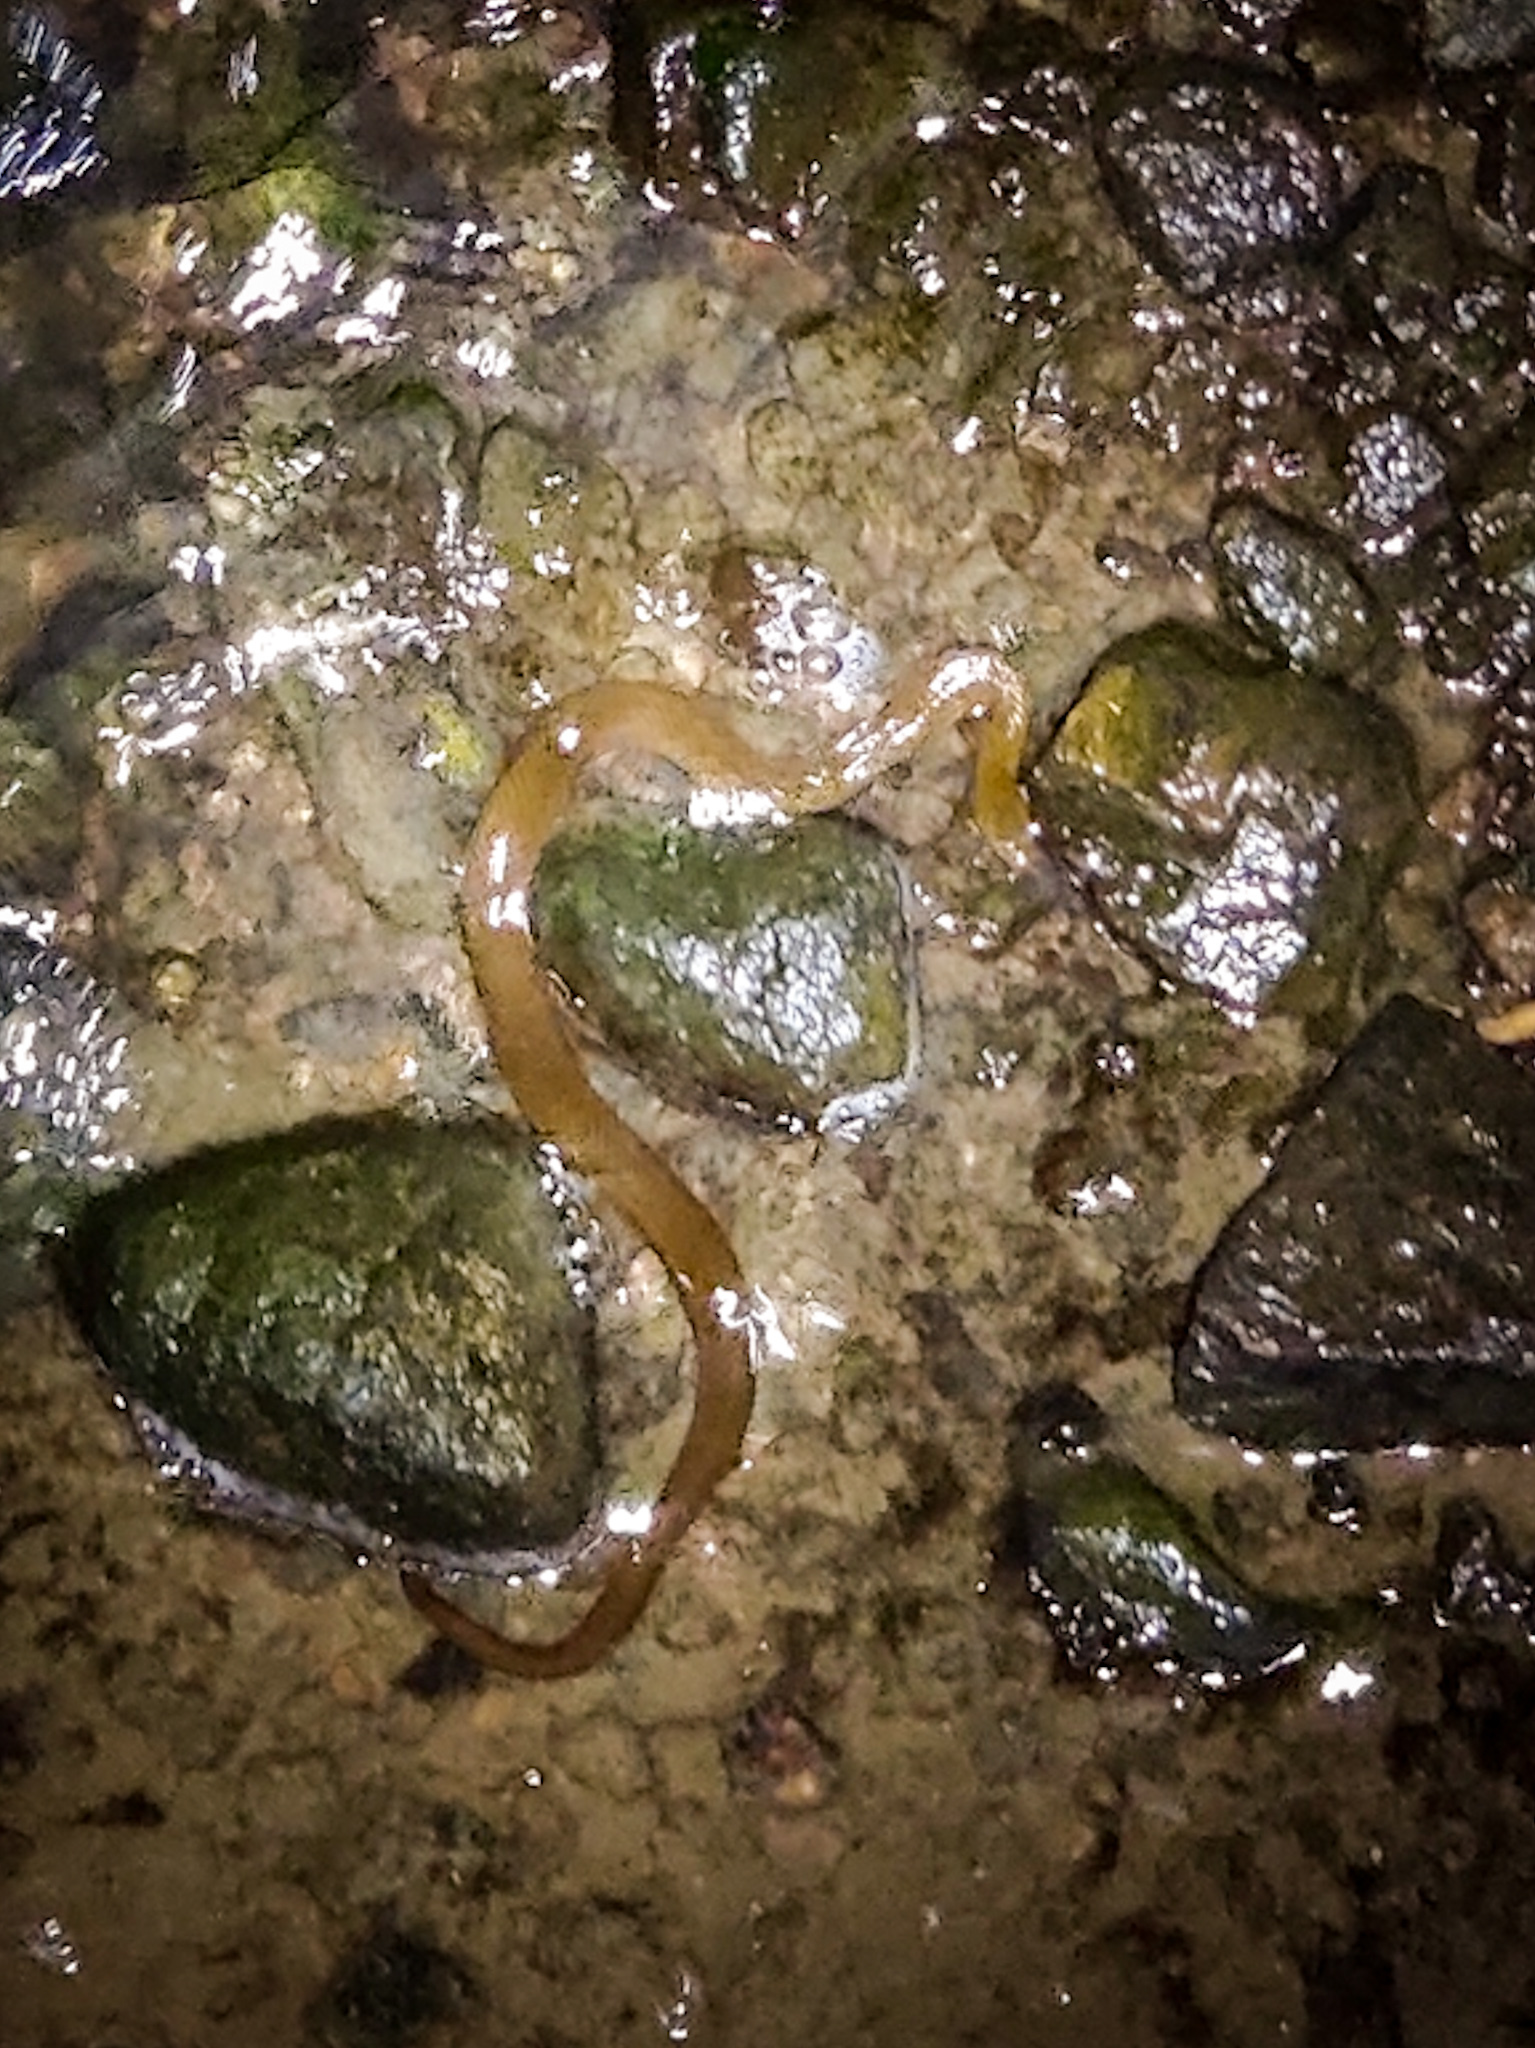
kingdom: Animalia
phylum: Chordata
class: Squamata
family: Colubridae
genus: Fowlea
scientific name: Fowlea piscator
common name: Asiatic water snake
